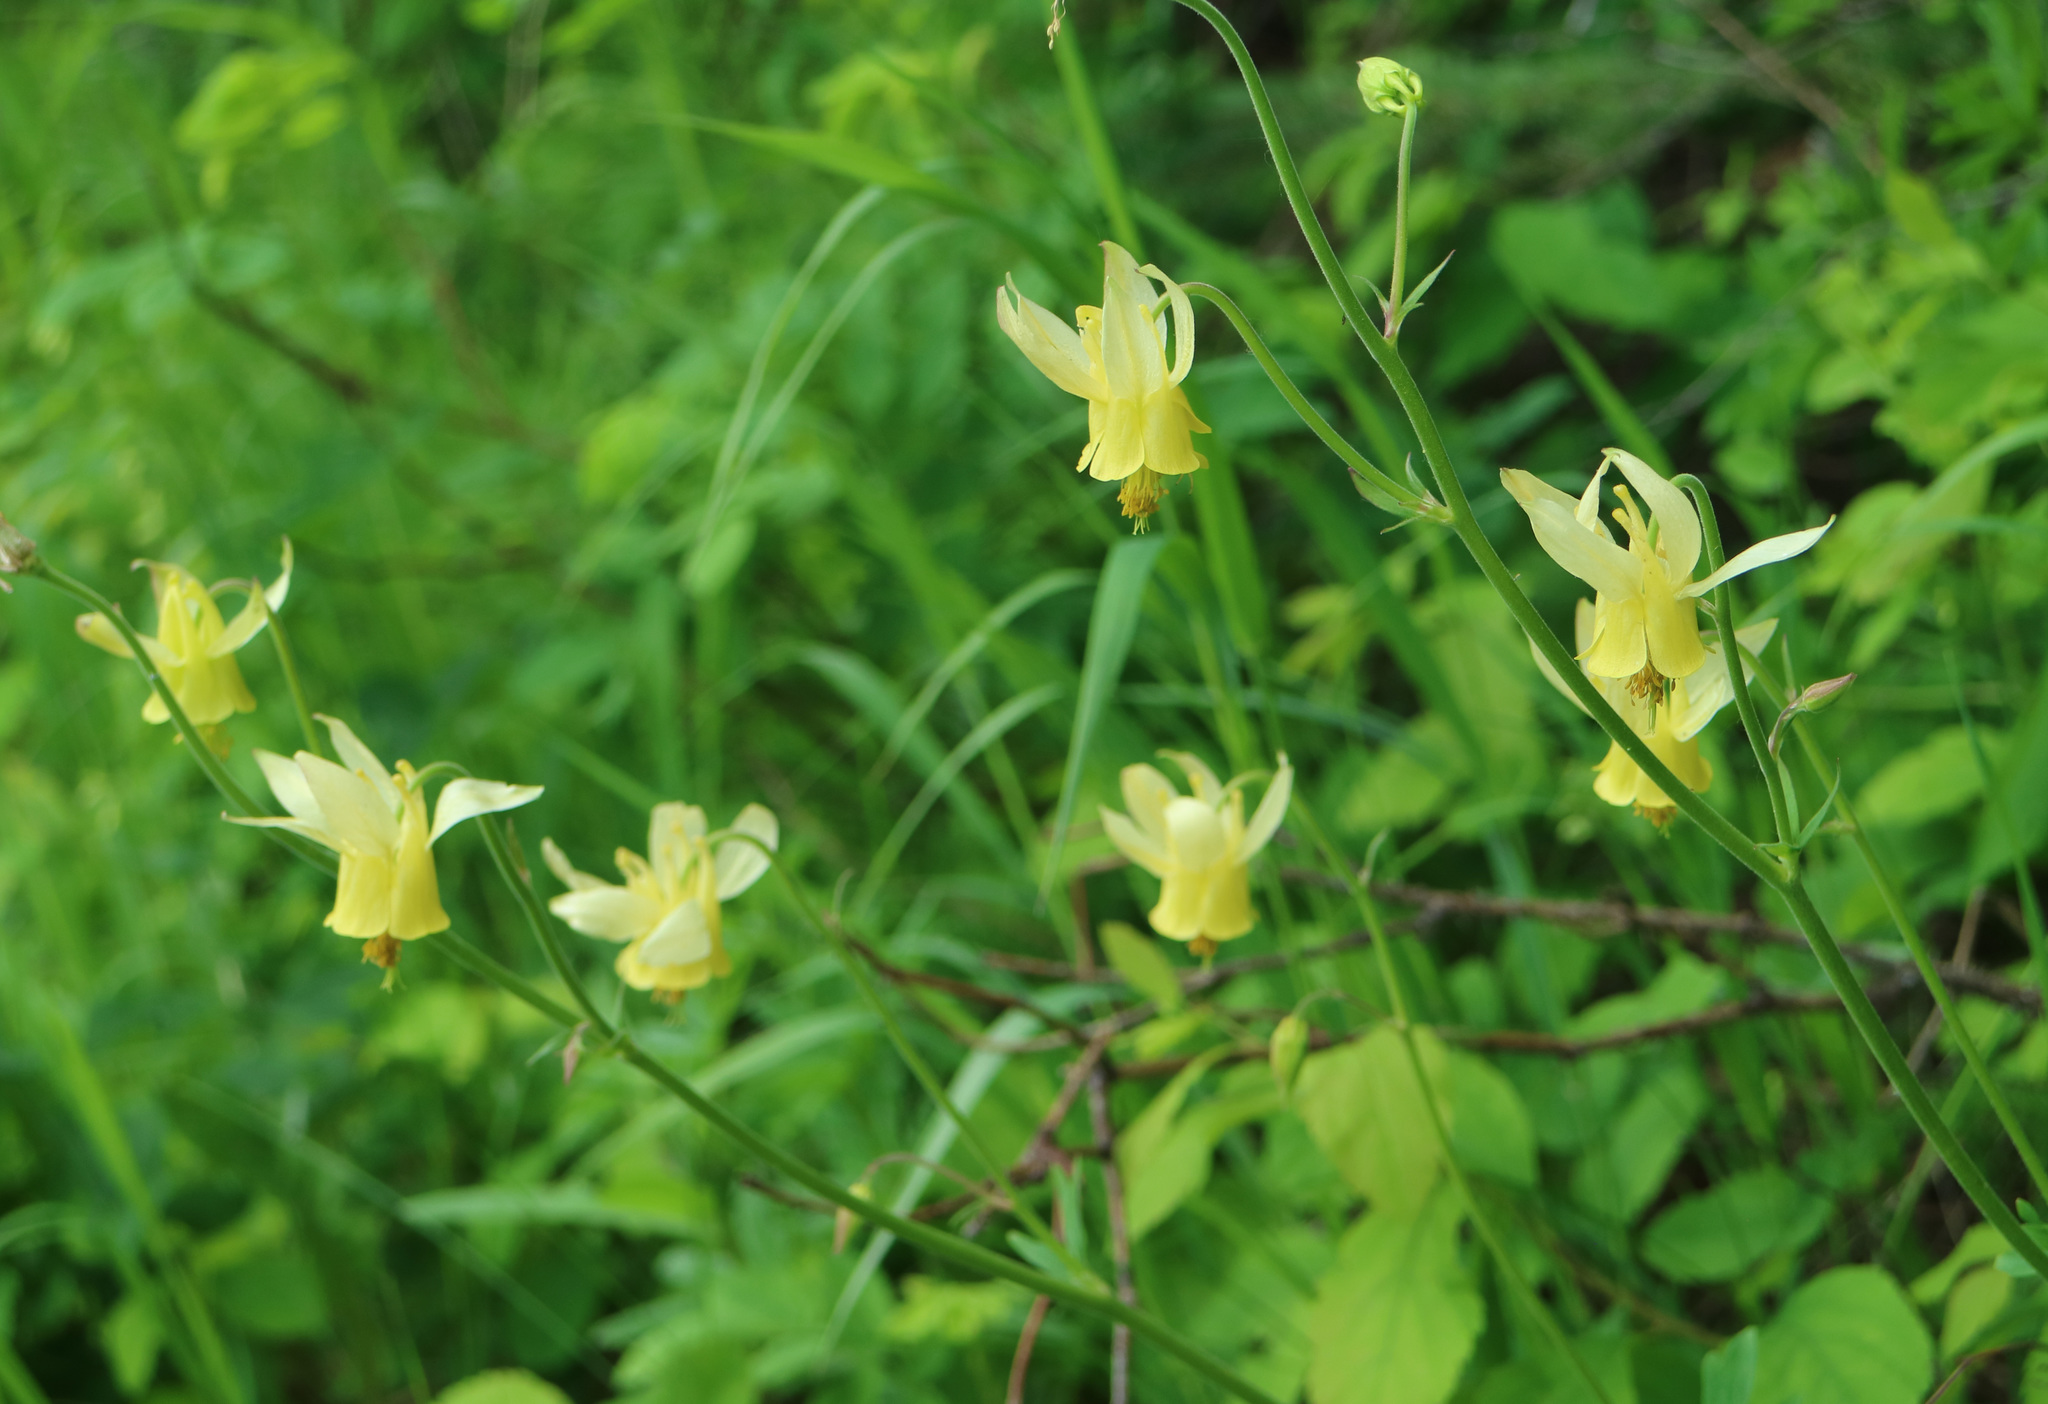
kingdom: Plantae
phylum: Tracheophyta
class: Magnoliopsida
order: Ranunculales
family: Ranunculaceae
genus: Aquilegia
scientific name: Aquilegia flavescens
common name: Yellow columbine
